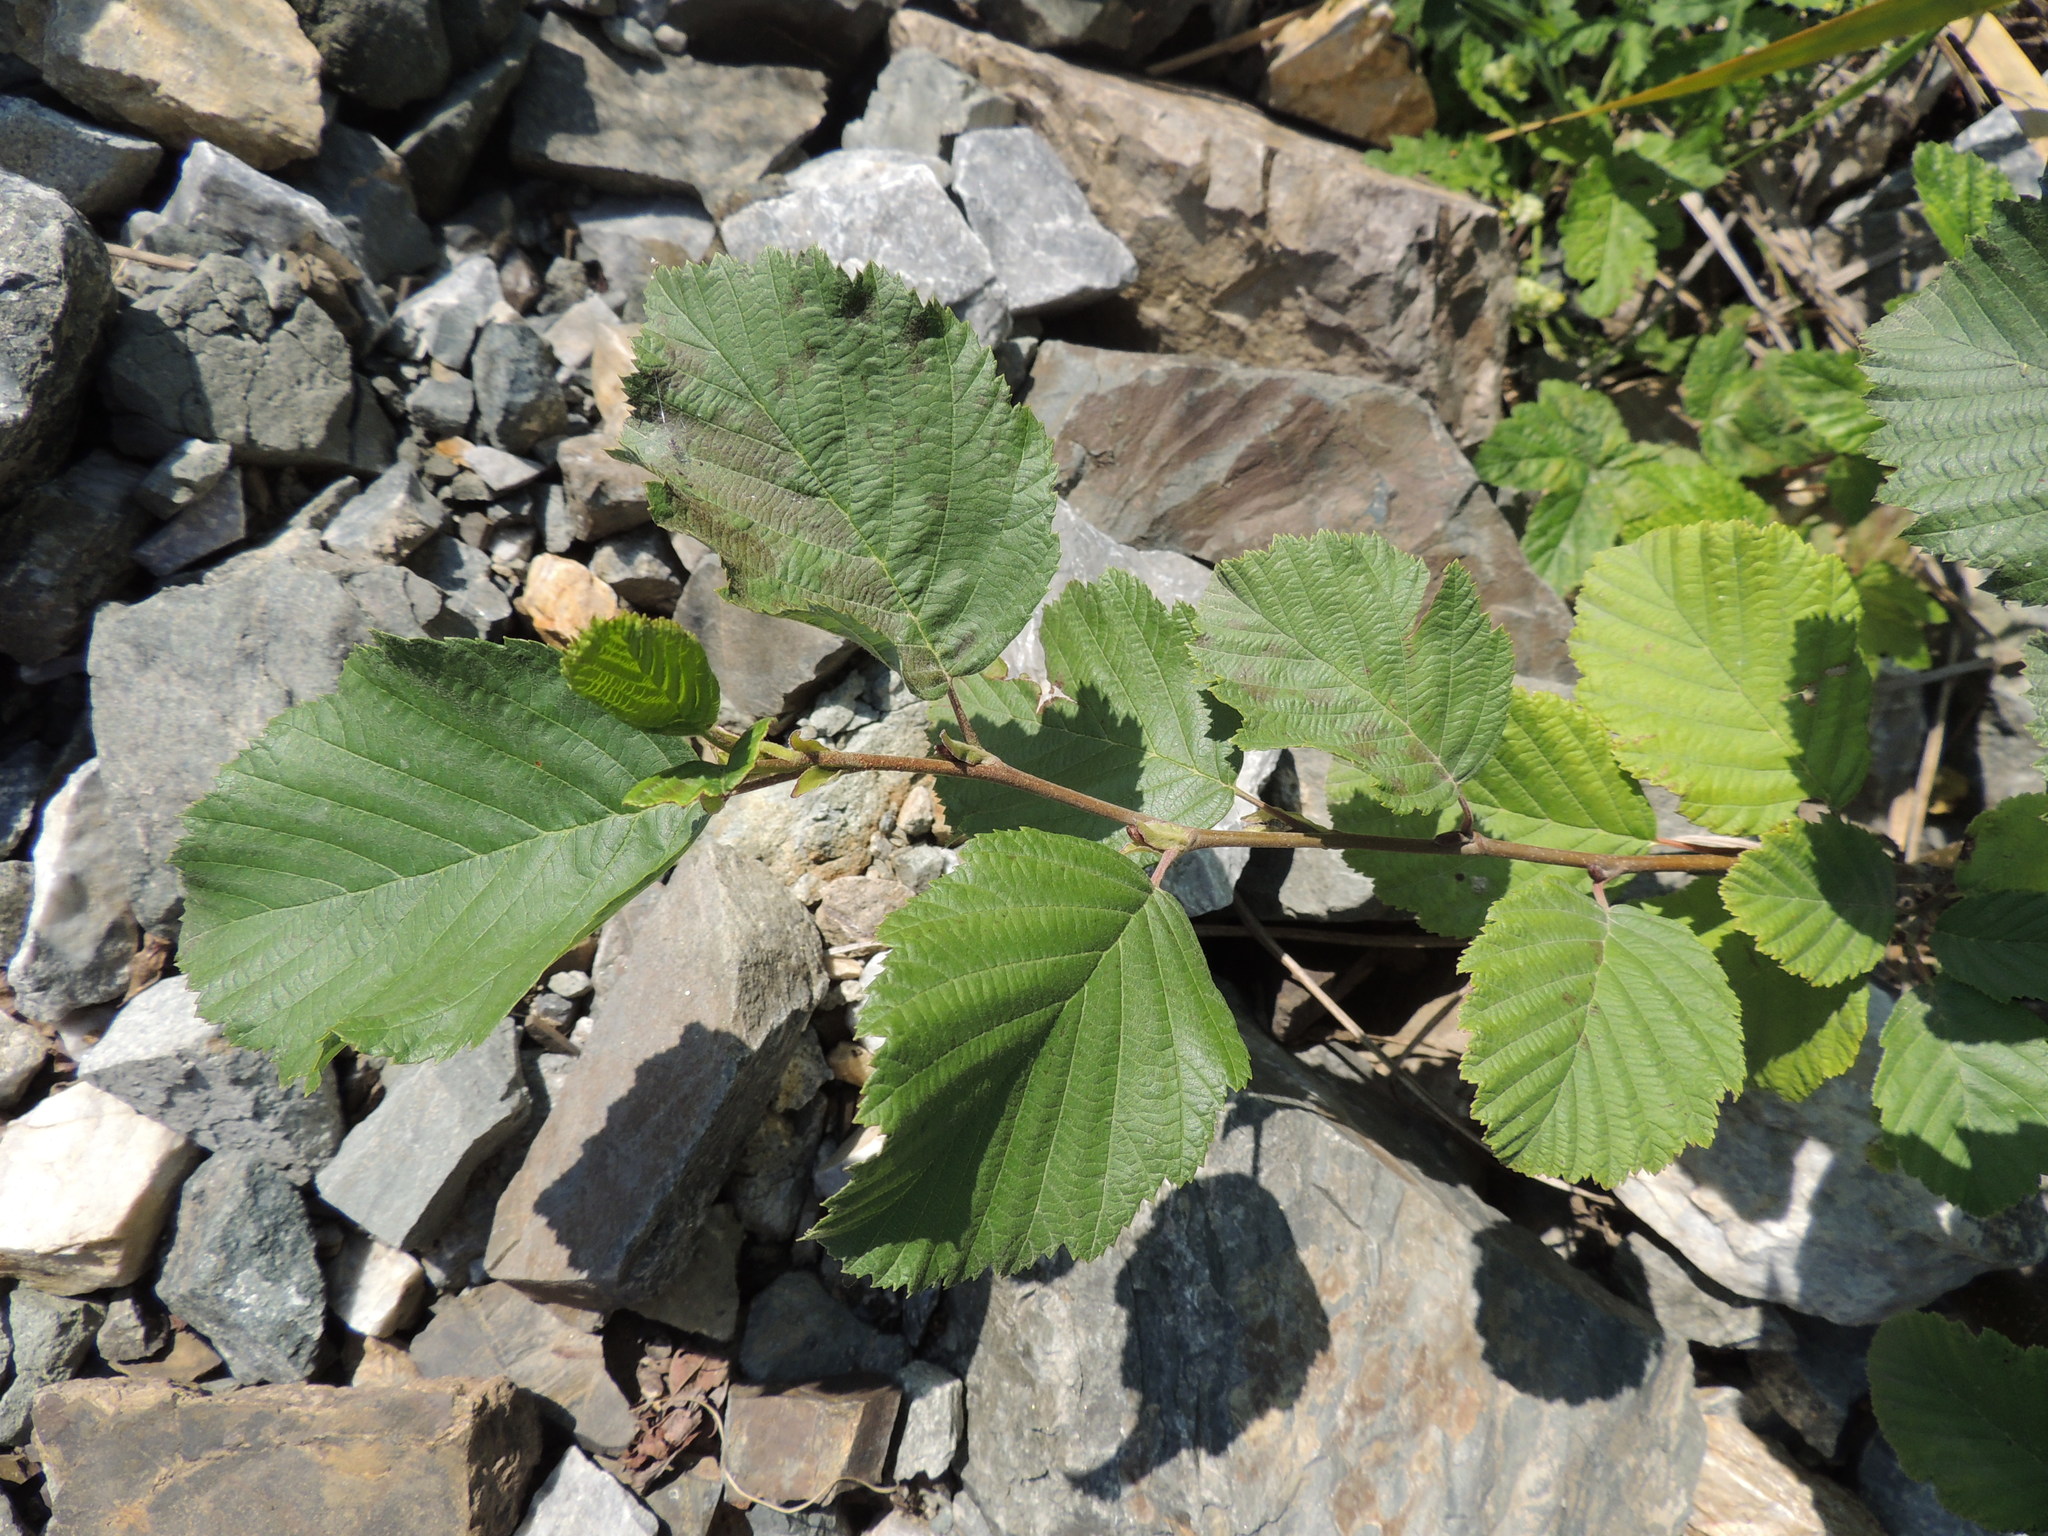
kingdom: Plantae
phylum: Tracheophyta
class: Magnoliopsida
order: Fagales
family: Betulaceae
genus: Alnus
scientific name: Alnus incana
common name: Grey alder
